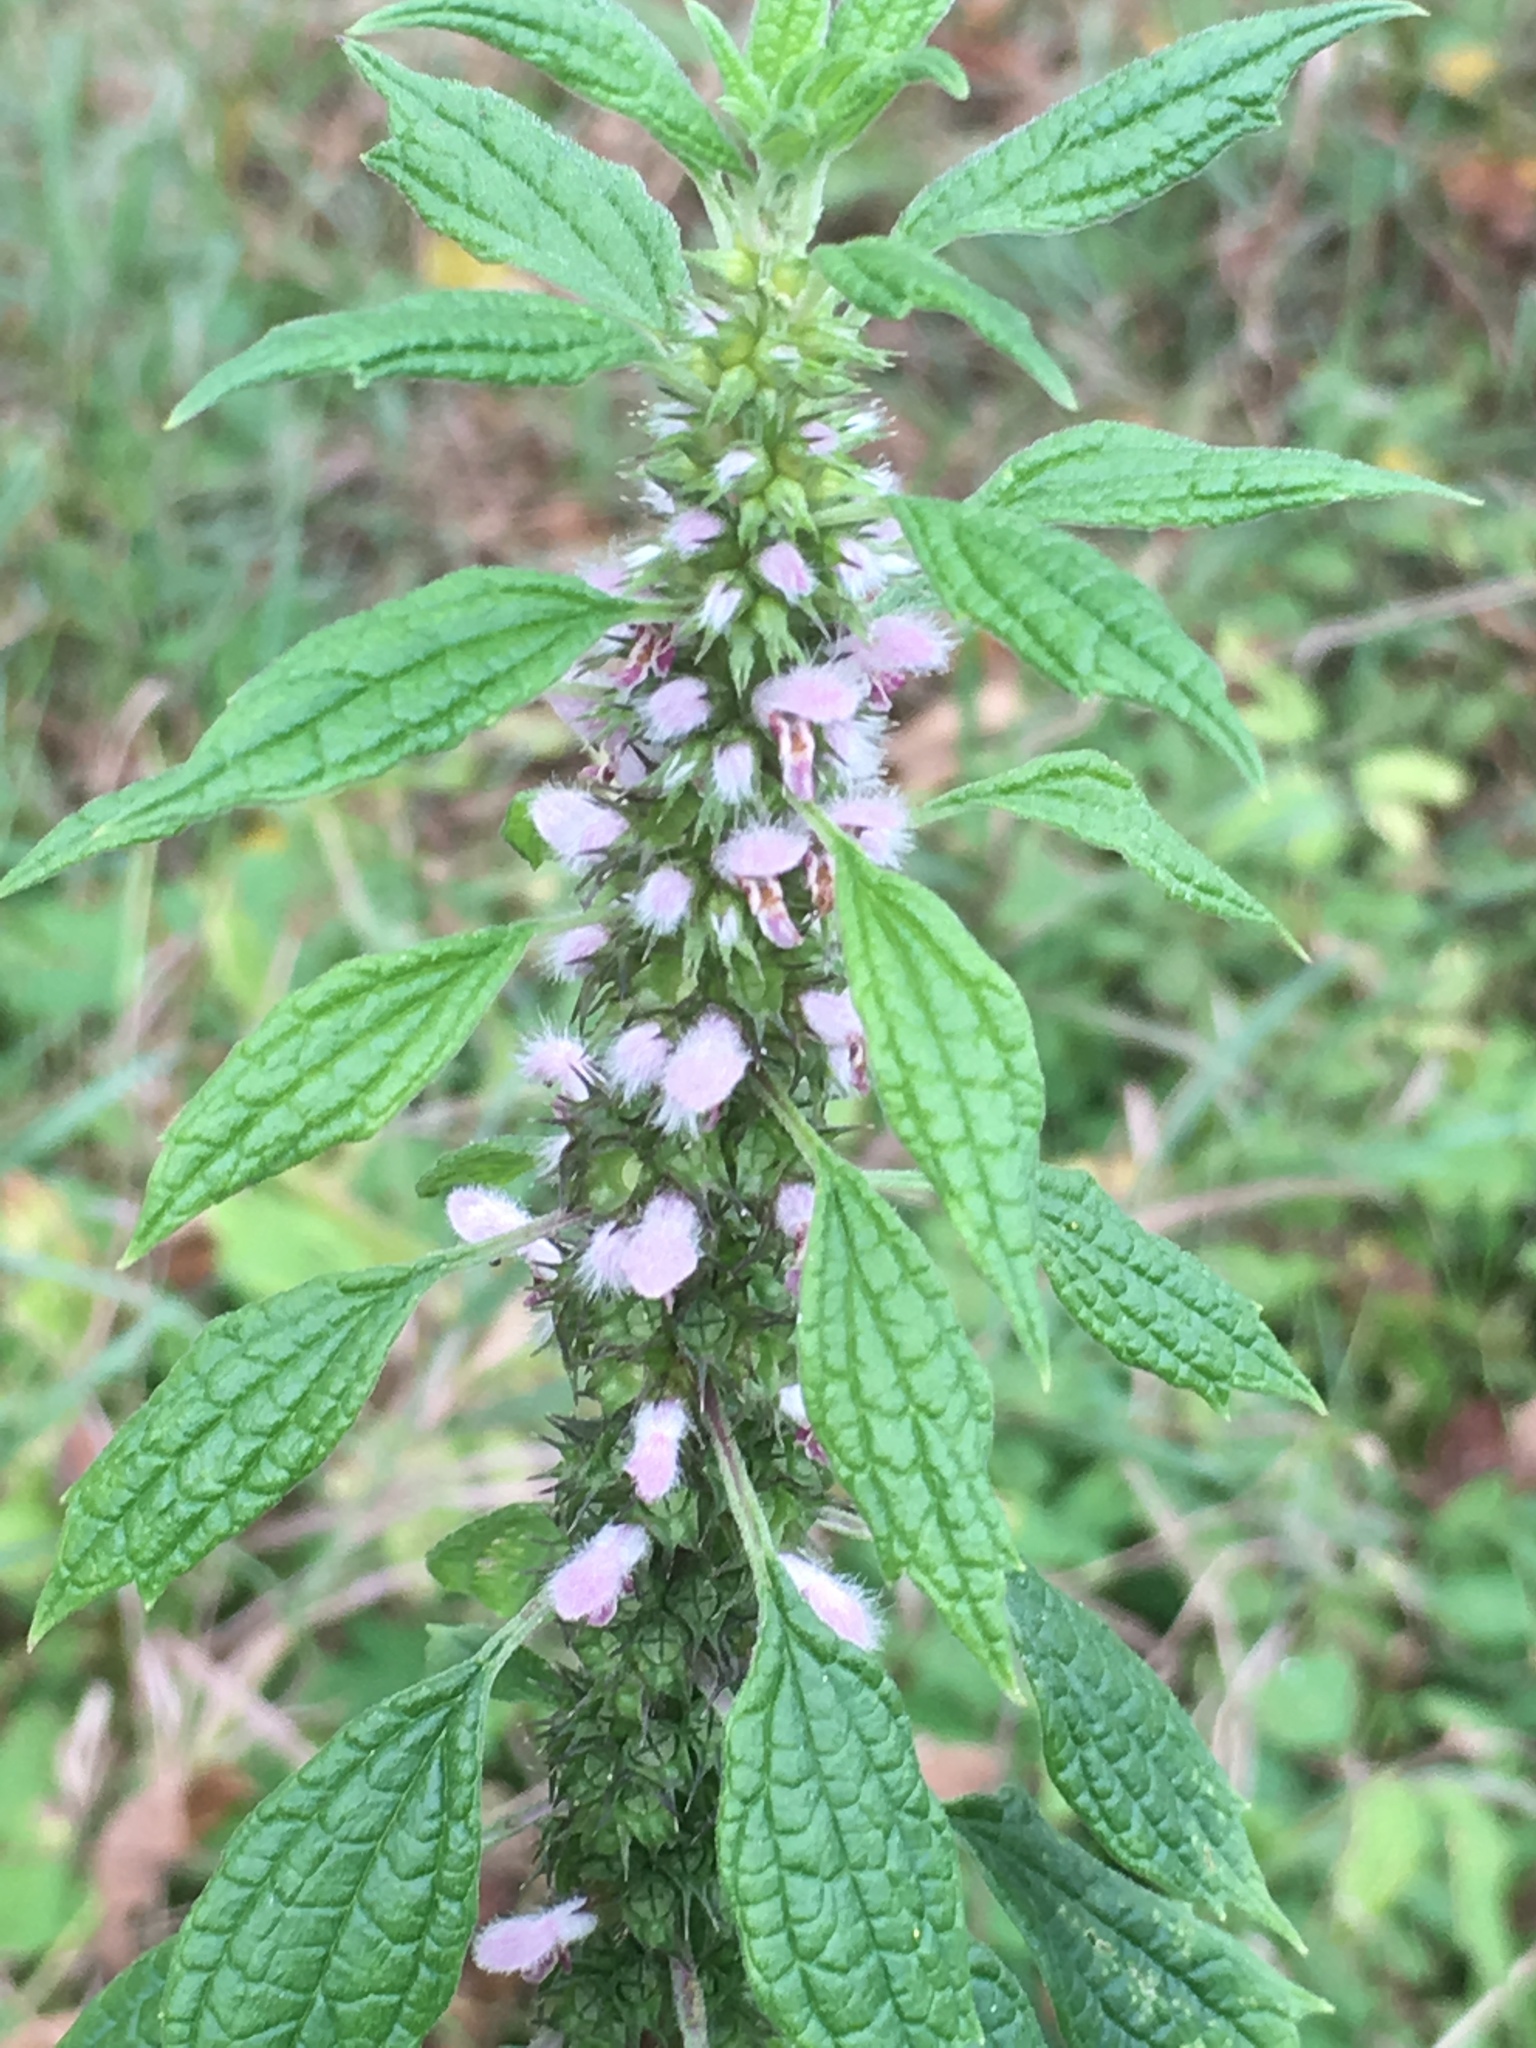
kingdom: Plantae
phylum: Tracheophyta
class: Magnoliopsida
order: Lamiales
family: Lamiaceae
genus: Leonurus
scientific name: Leonurus cardiaca
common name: Motherwort
